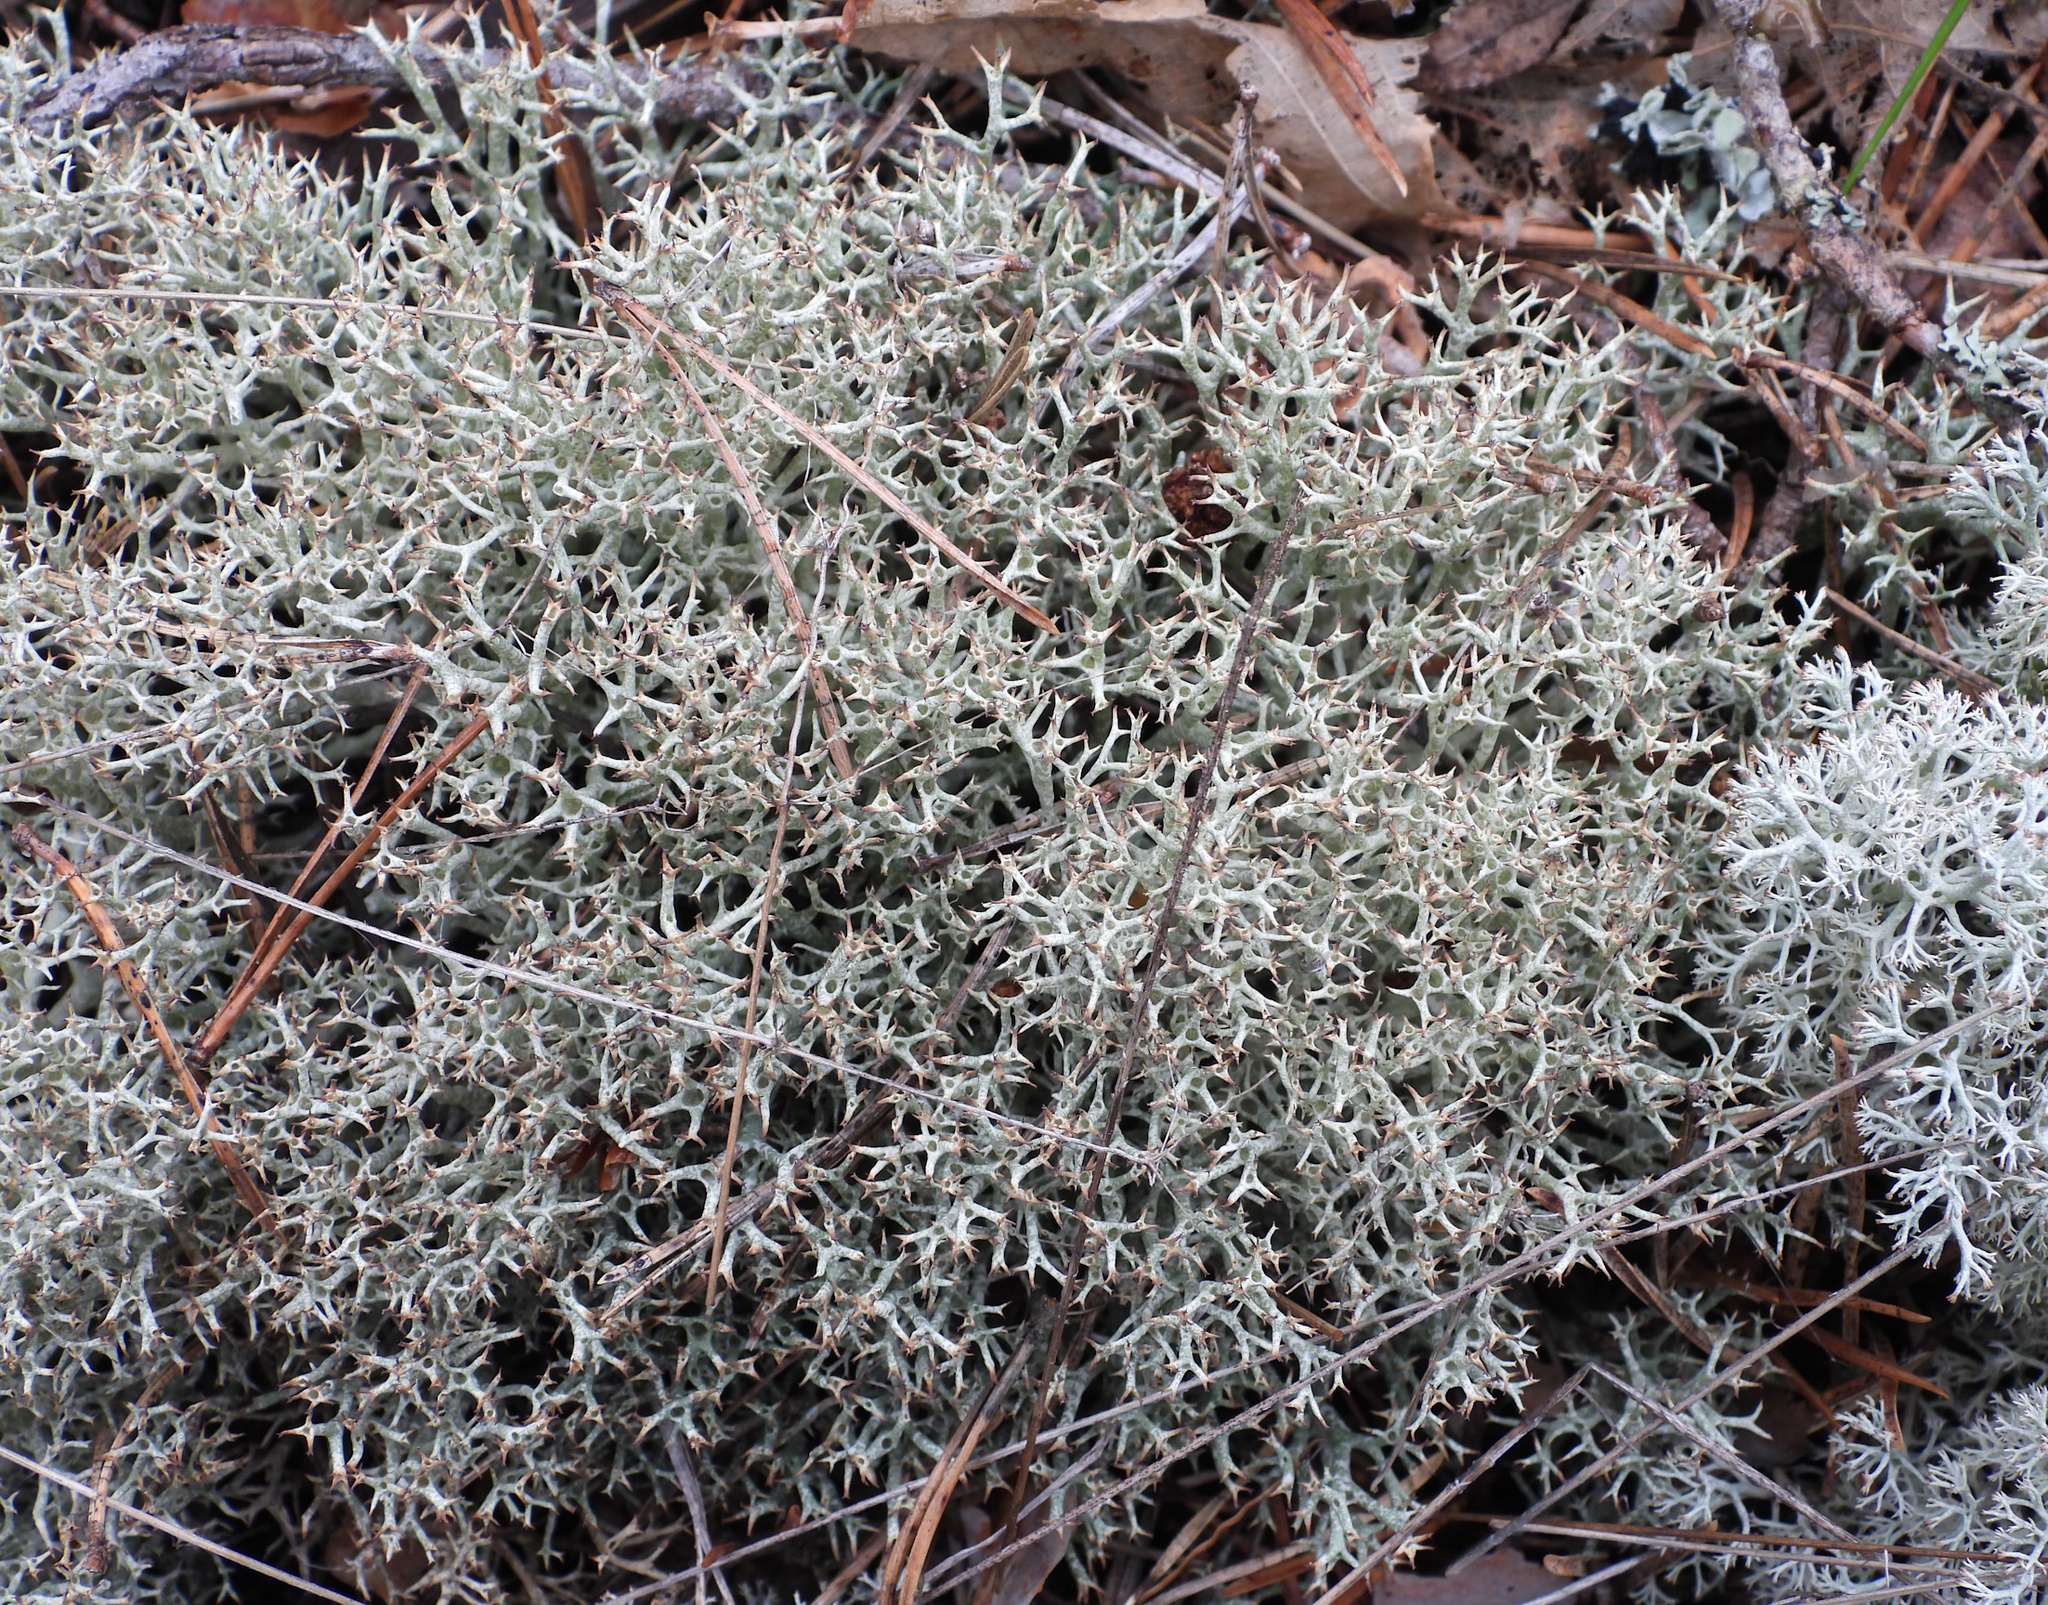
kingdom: Fungi
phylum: Ascomycota
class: Lecanoromycetes
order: Lecanorales
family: Cladoniaceae
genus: Cladonia
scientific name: Cladonia uncialis
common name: Thorn lichen
